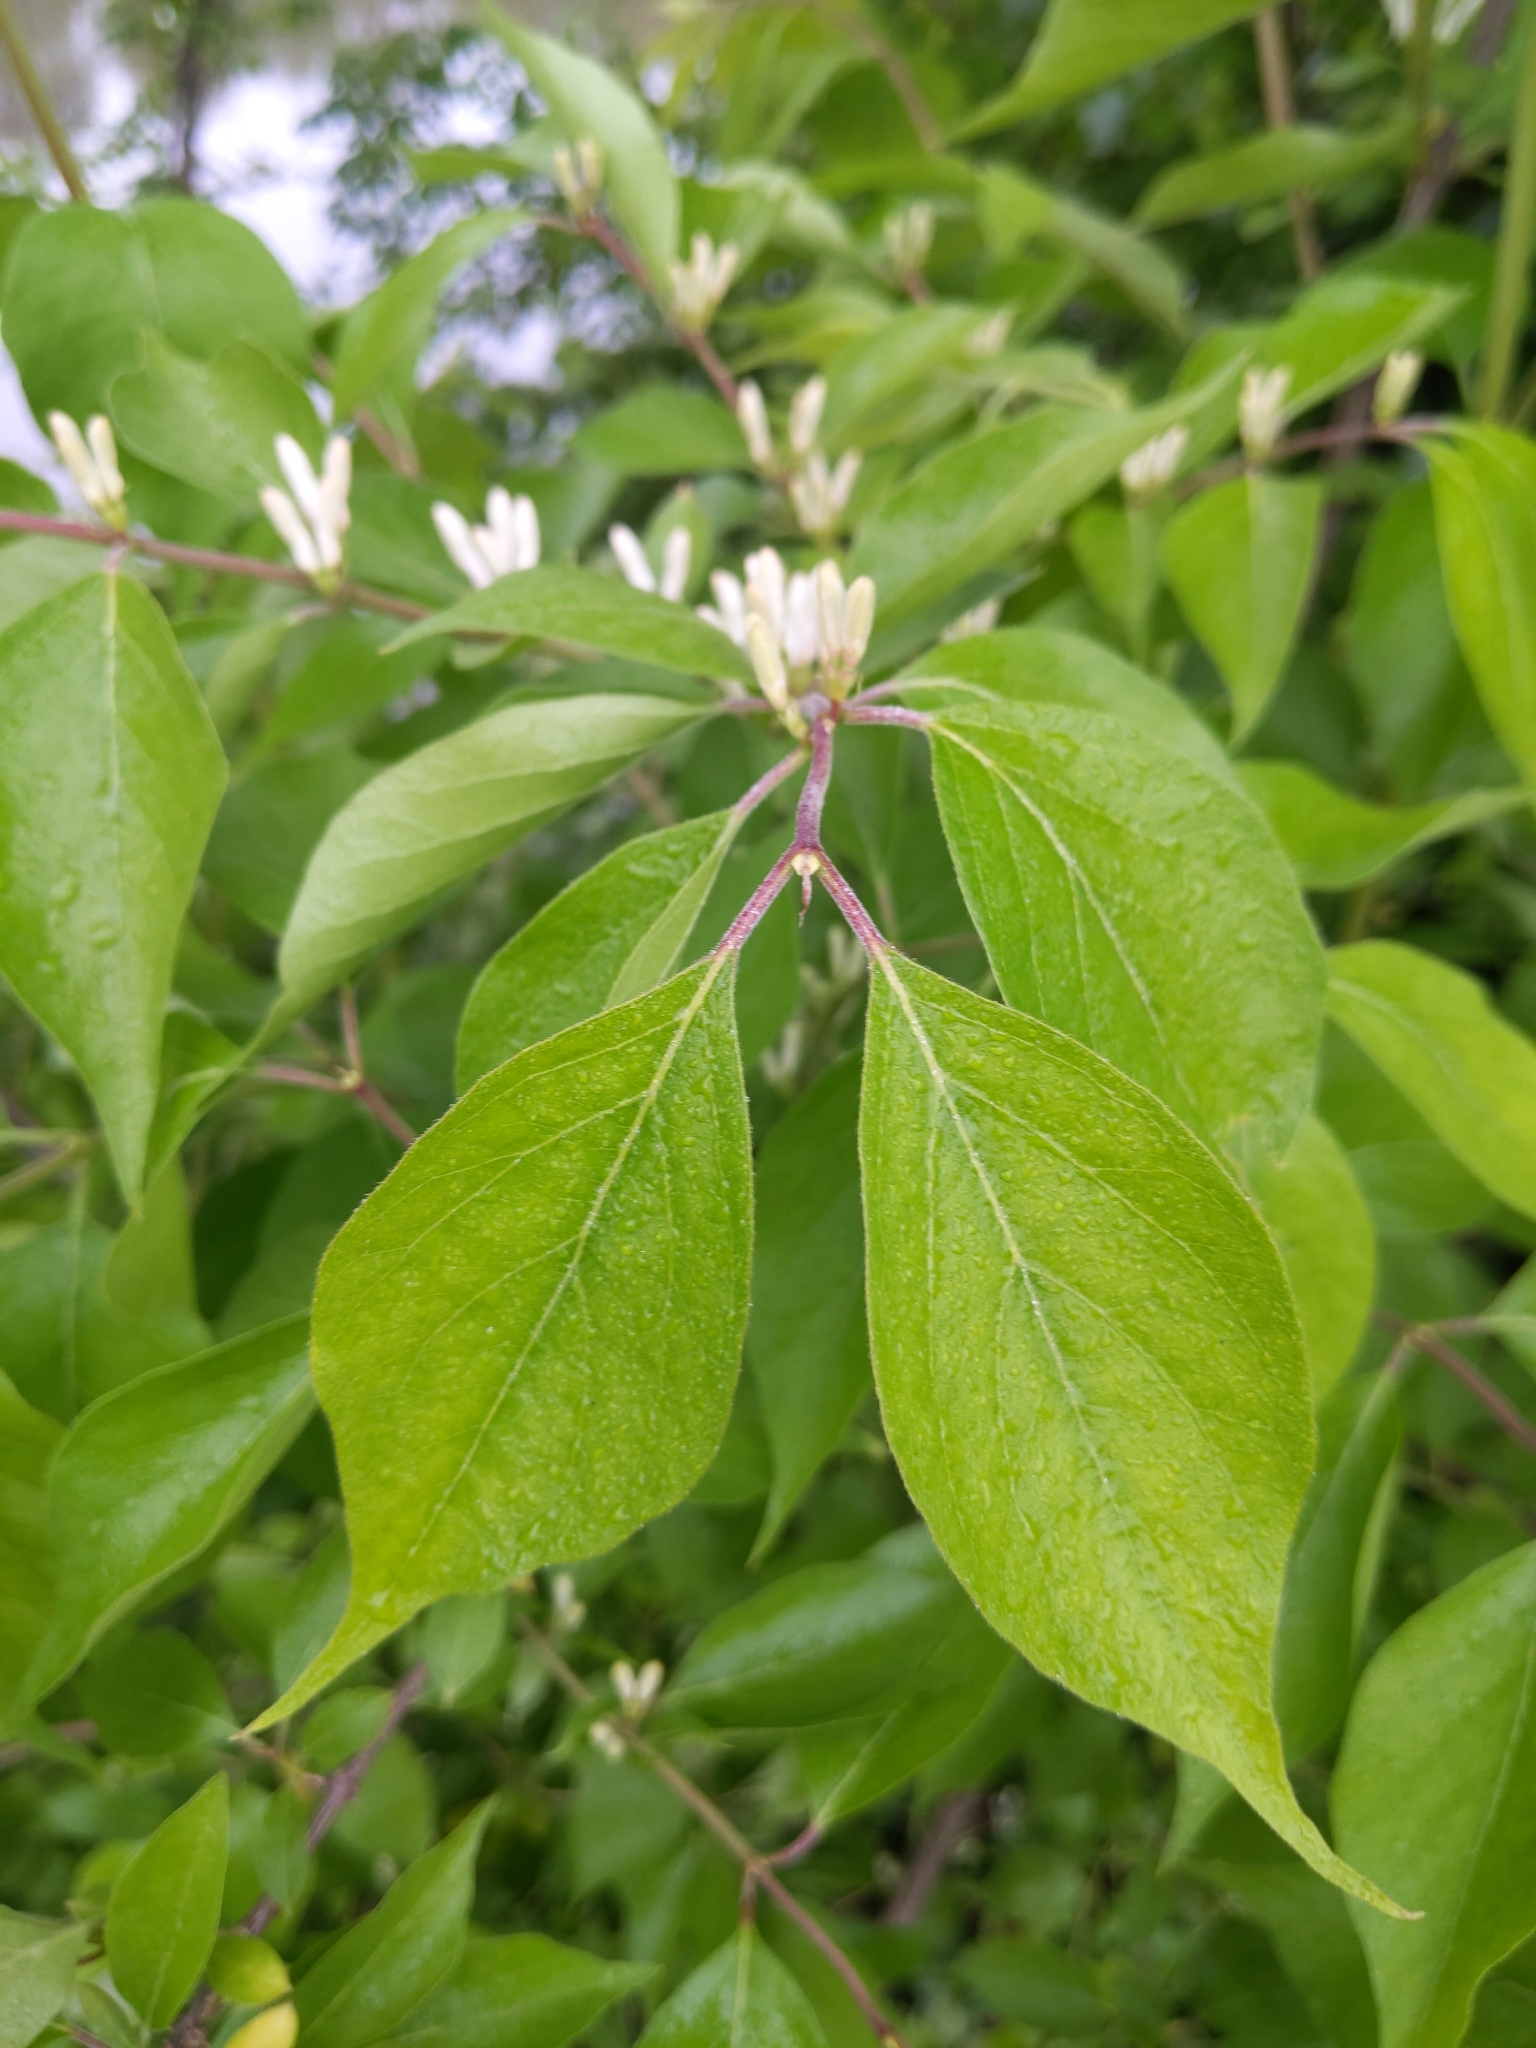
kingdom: Plantae
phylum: Tracheophyta
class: Magnoliopsida
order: Dipsacales
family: Caprifoliaceae
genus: Lonicera
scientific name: Lonicera maackii
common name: Amur honeysuckle
